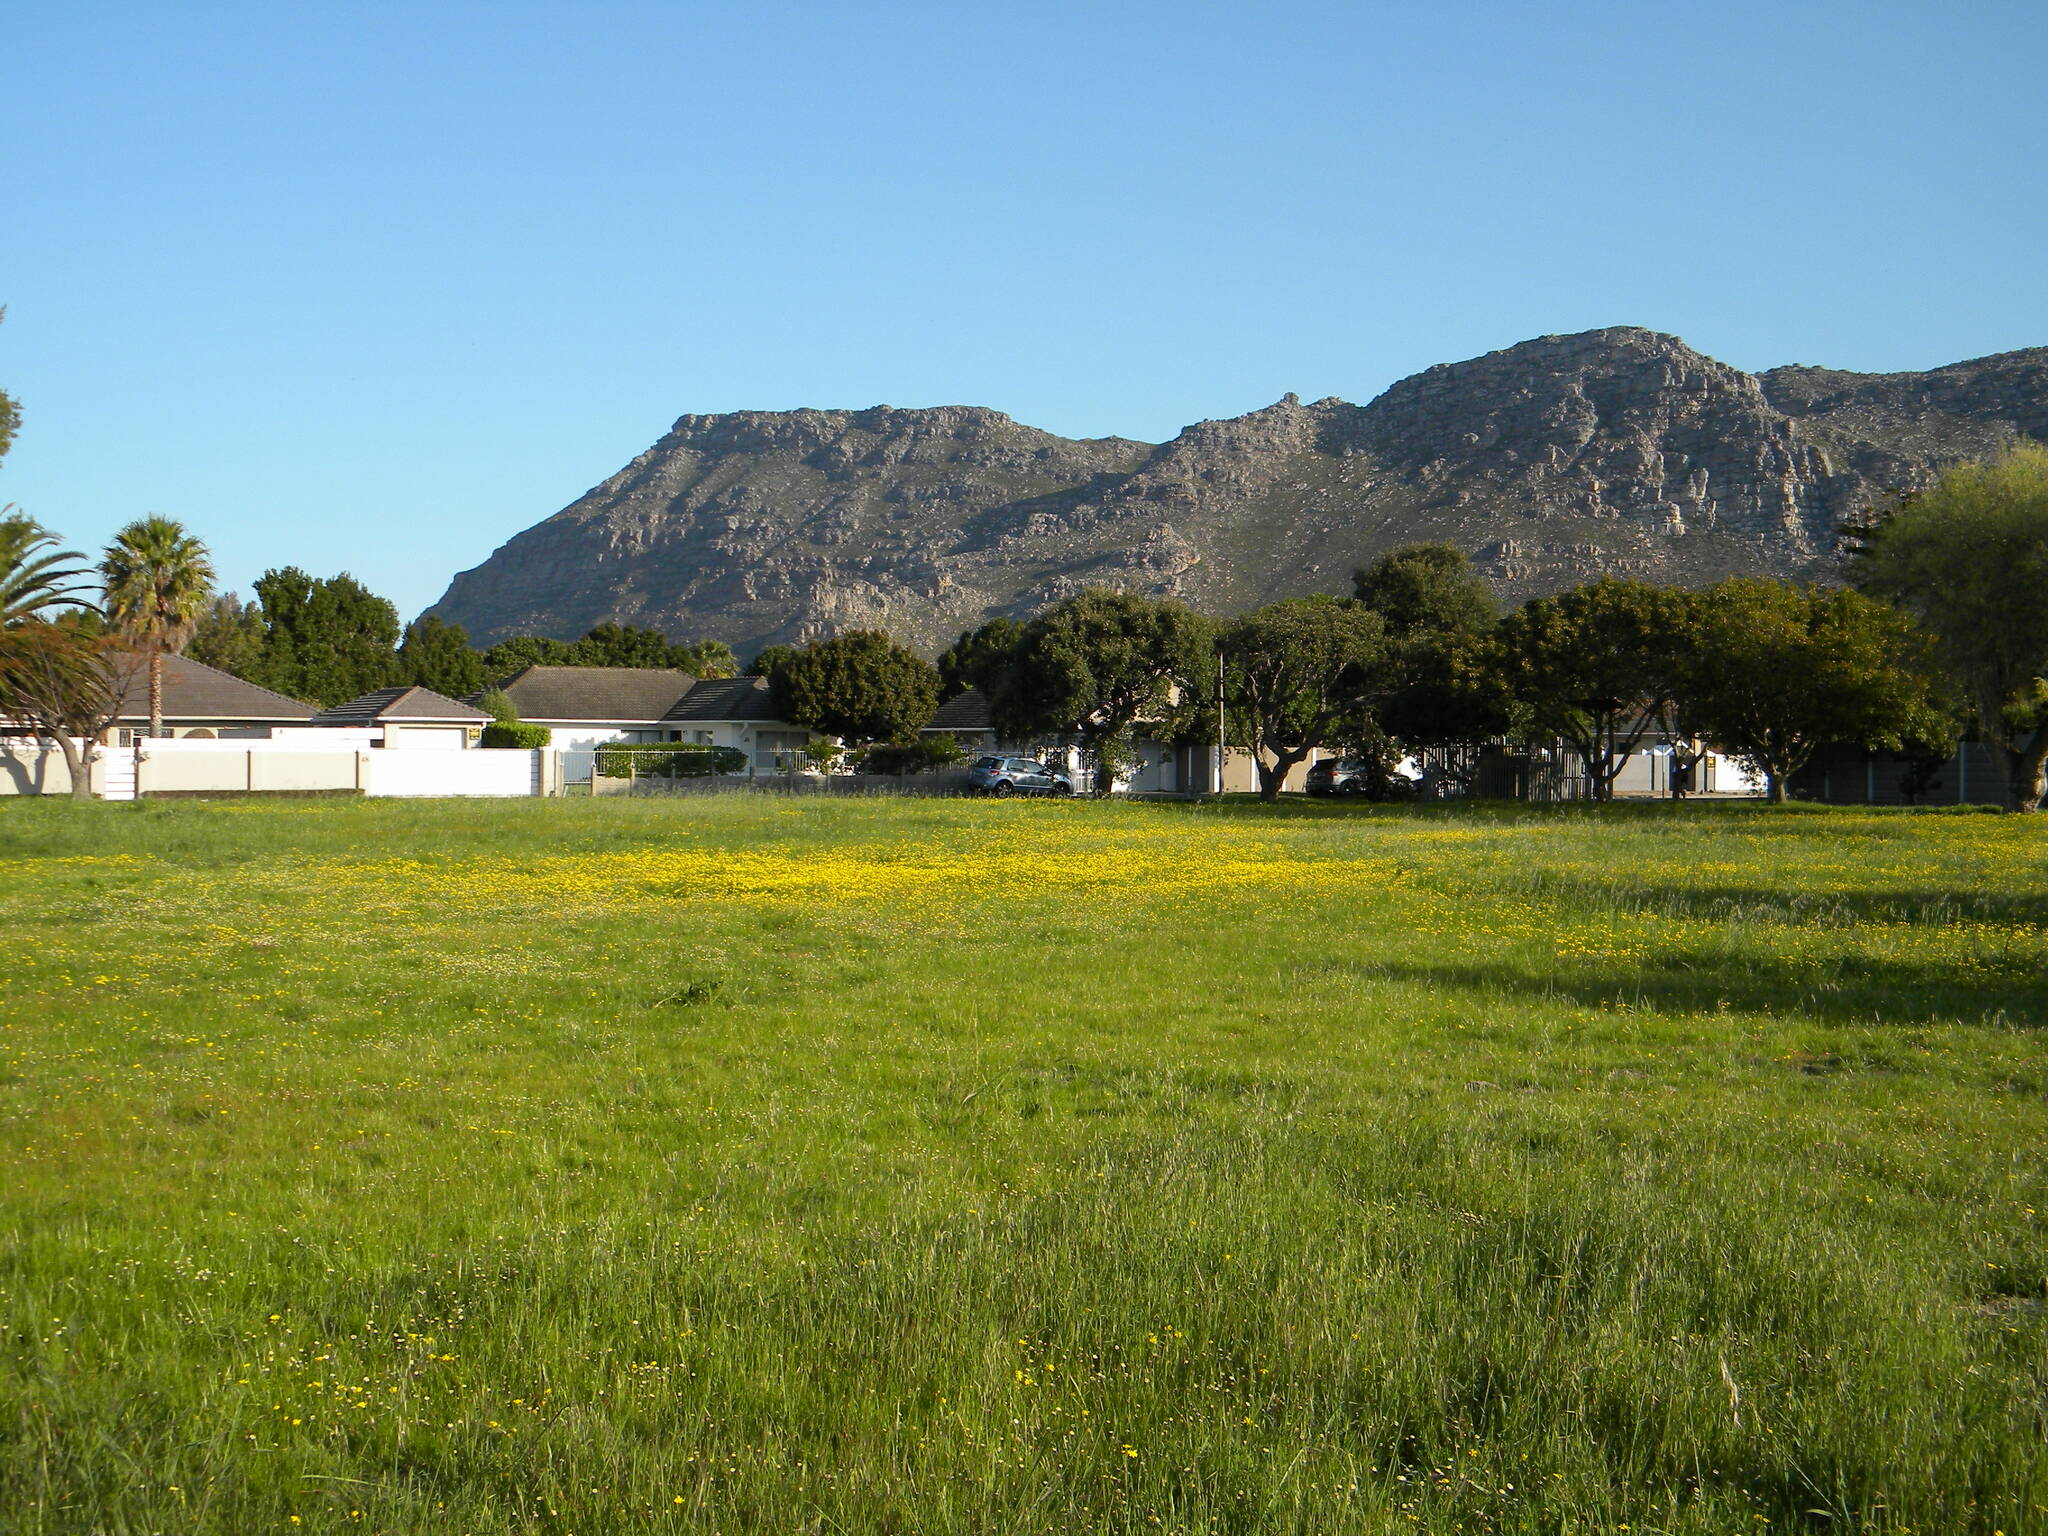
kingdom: Plantae
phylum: Tracheophyta
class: Magnoliopsida
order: Asterales
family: Asteraceae
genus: Senecio
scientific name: Senecio littoreus
